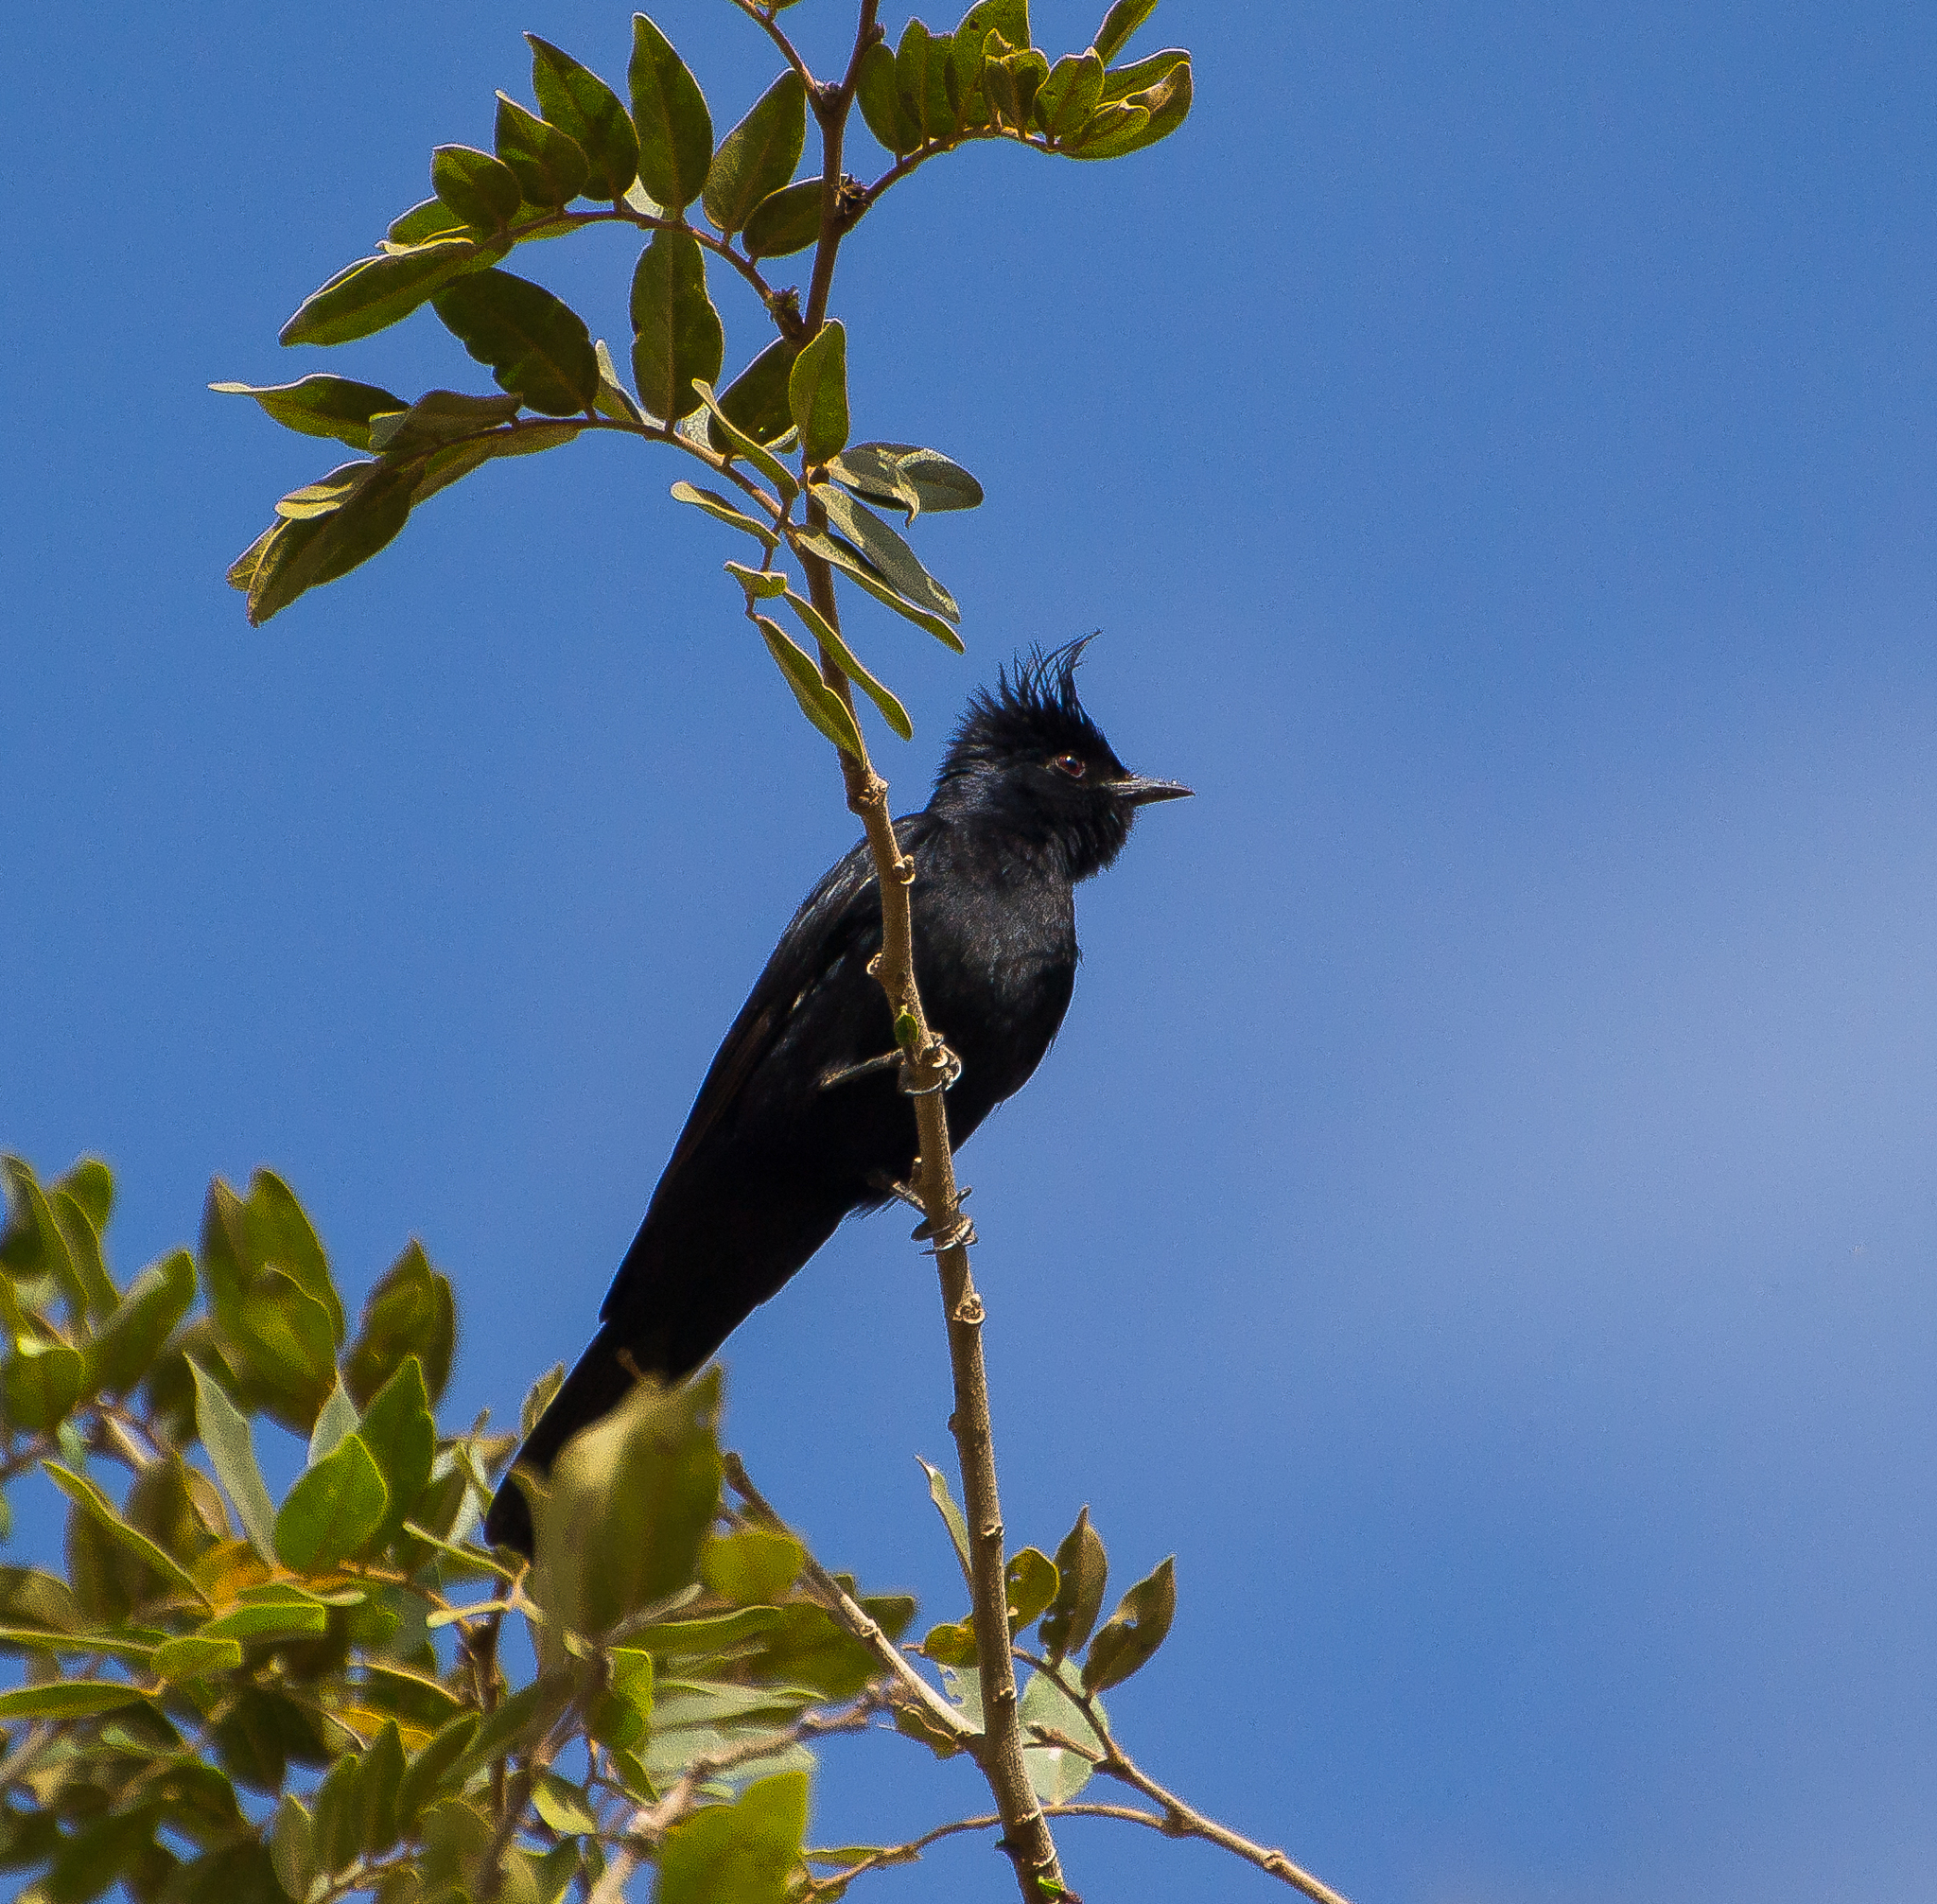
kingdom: Animalia
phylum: Chordata
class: Aves
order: Passeriformes
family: Tyrannidae
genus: Knipolegus
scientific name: Knipolegus lophotes
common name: Crested black tyrant
